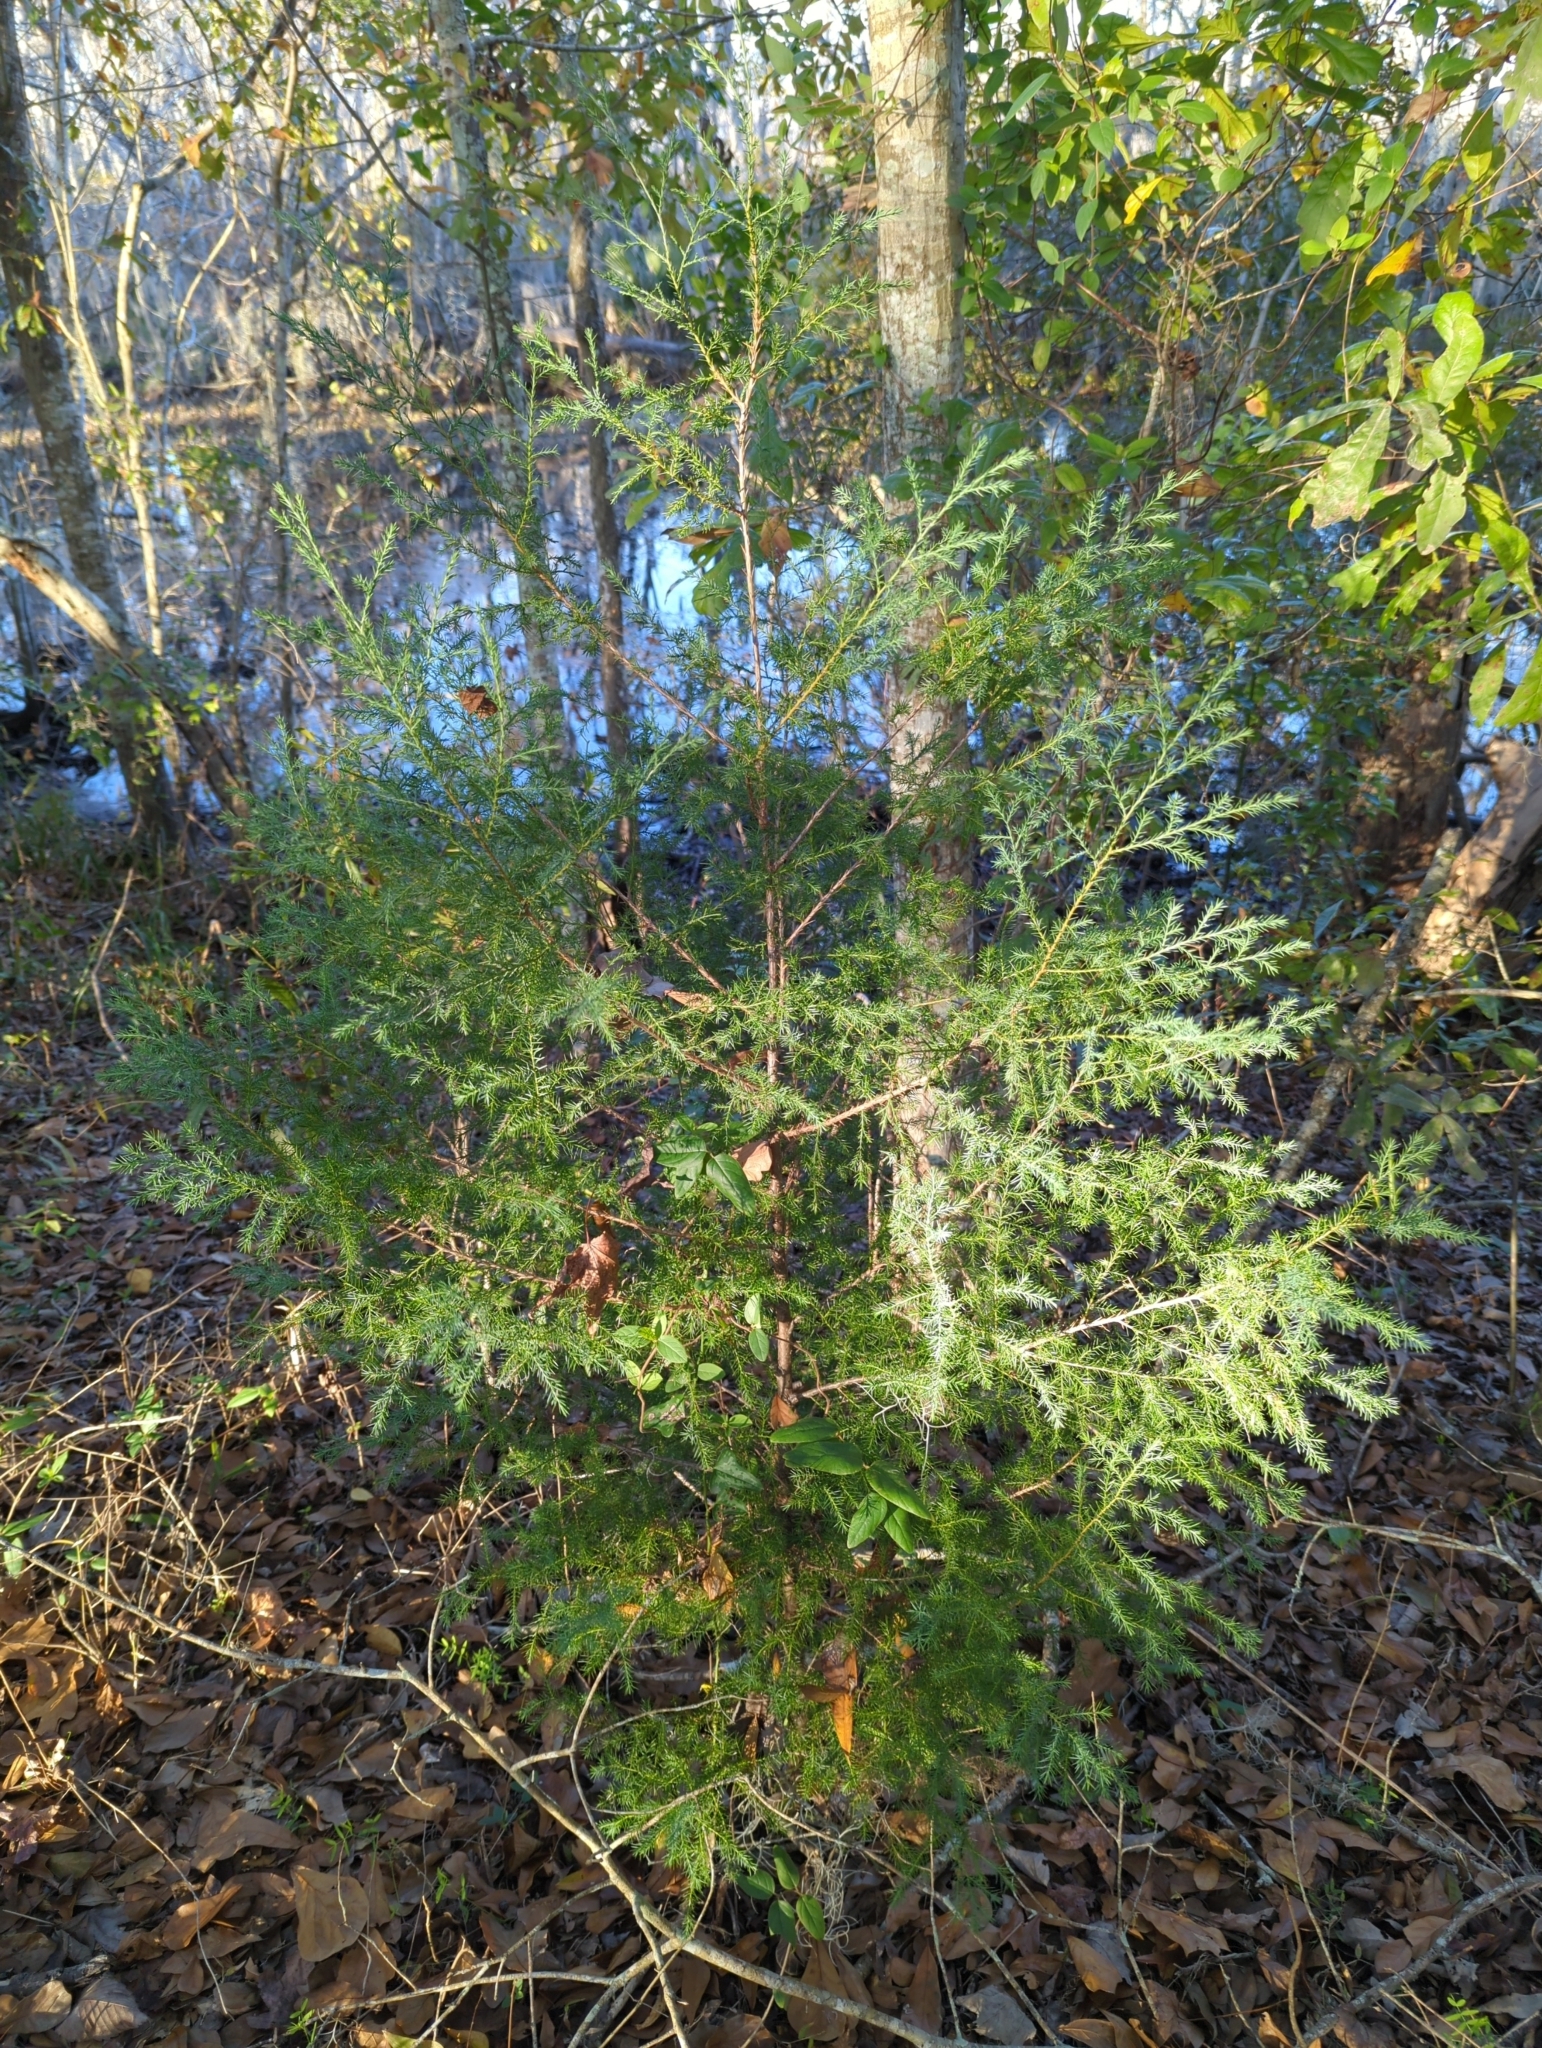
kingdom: Plantae
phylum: Tracheophyta
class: Pinopsida
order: Pinales
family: Cupressaceae
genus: Juniperus
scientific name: Juniperus virginiana
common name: Red juniper
